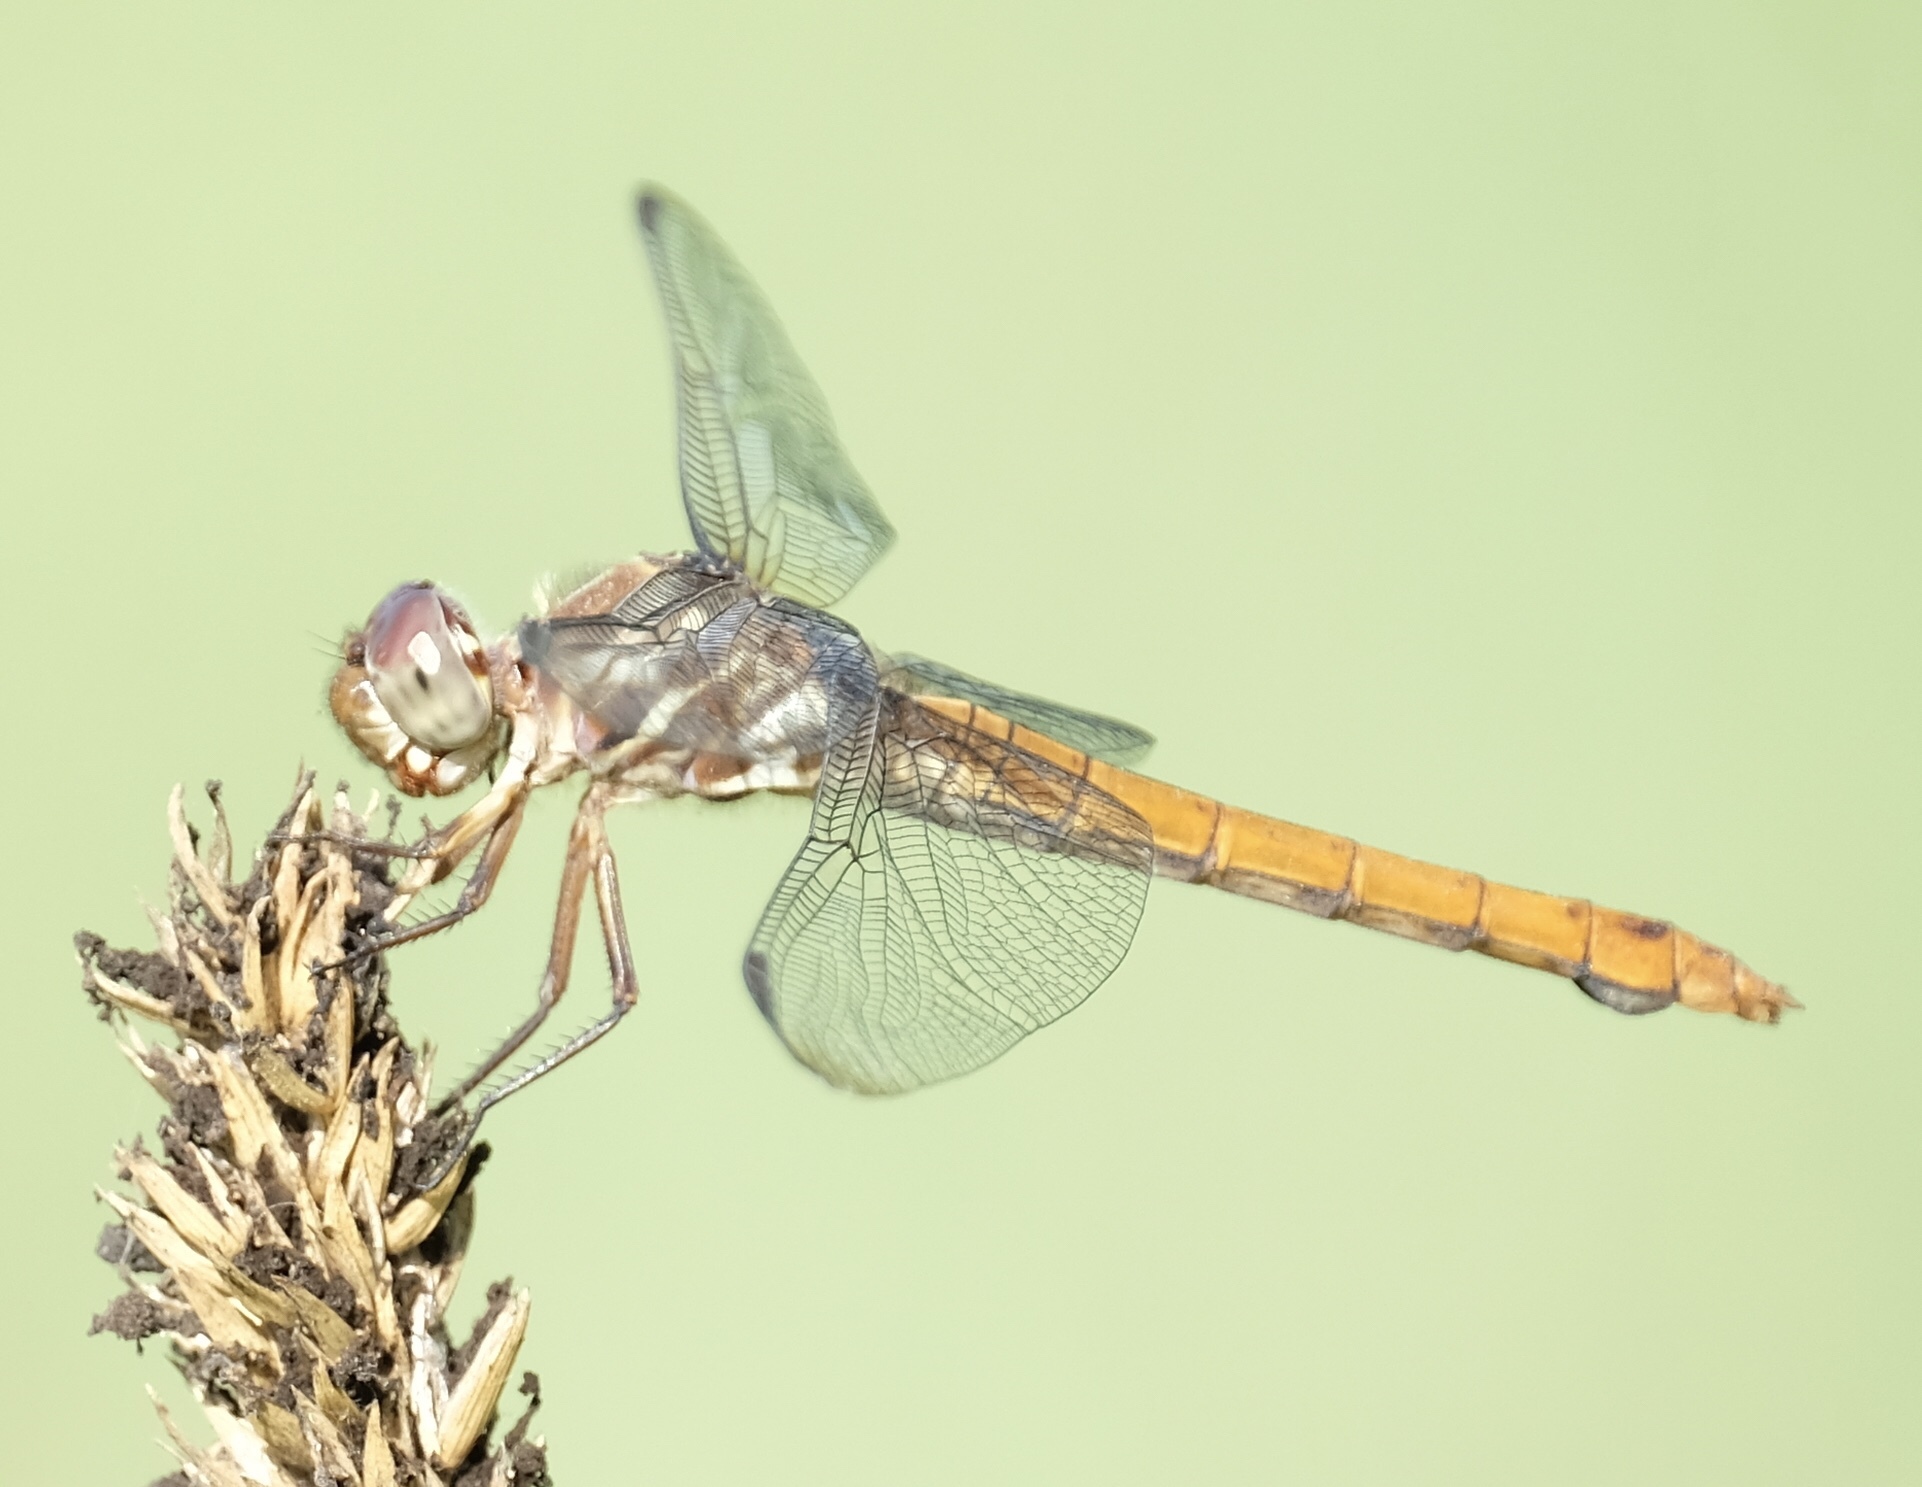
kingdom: Animalia
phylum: Arthropoda
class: Insecta
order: Odonata
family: Libellulidae
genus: Orthemis
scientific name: Orthemis ferruginea
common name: Roseate skimmer
